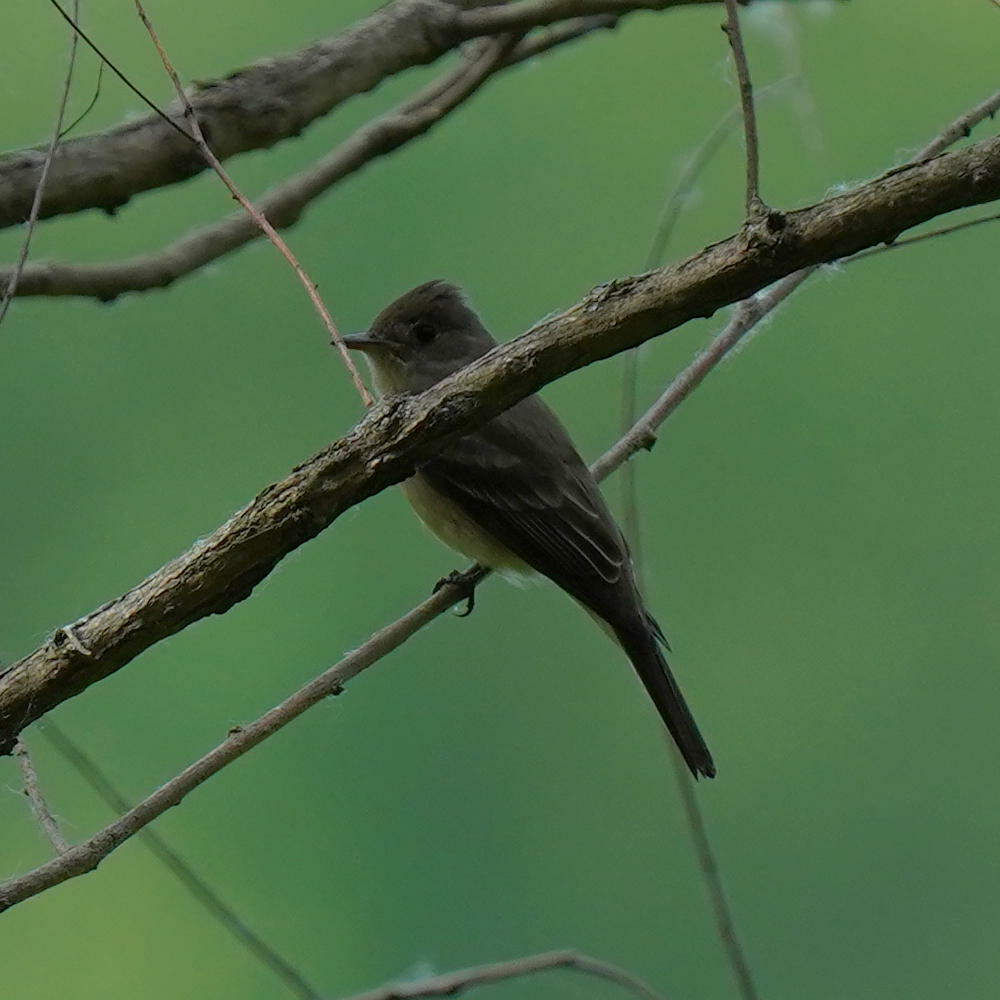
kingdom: Animalia
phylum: Chordata
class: Aves
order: Passeriformes
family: Tyrannidae
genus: Contopus
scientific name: Contopus virens
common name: Eastern wood-pewee
